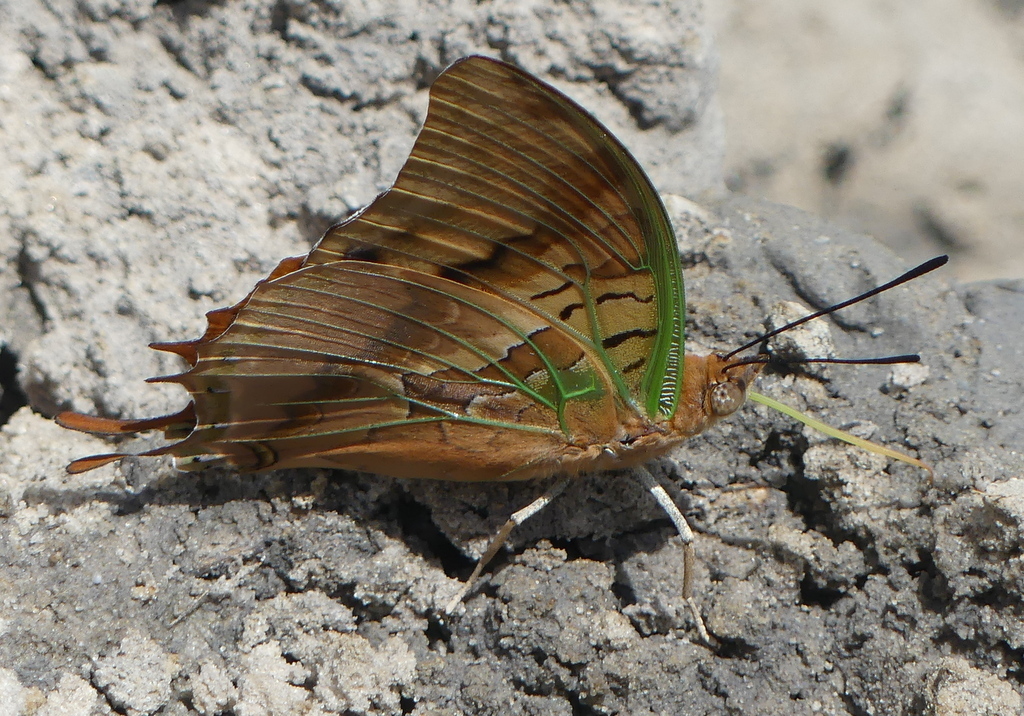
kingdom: Animalia
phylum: Arthropoda
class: Insecta
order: Lepidoptera
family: Nymphalidae
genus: Charaxes
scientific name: Charaxes candiope
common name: Green-veined charaxes
